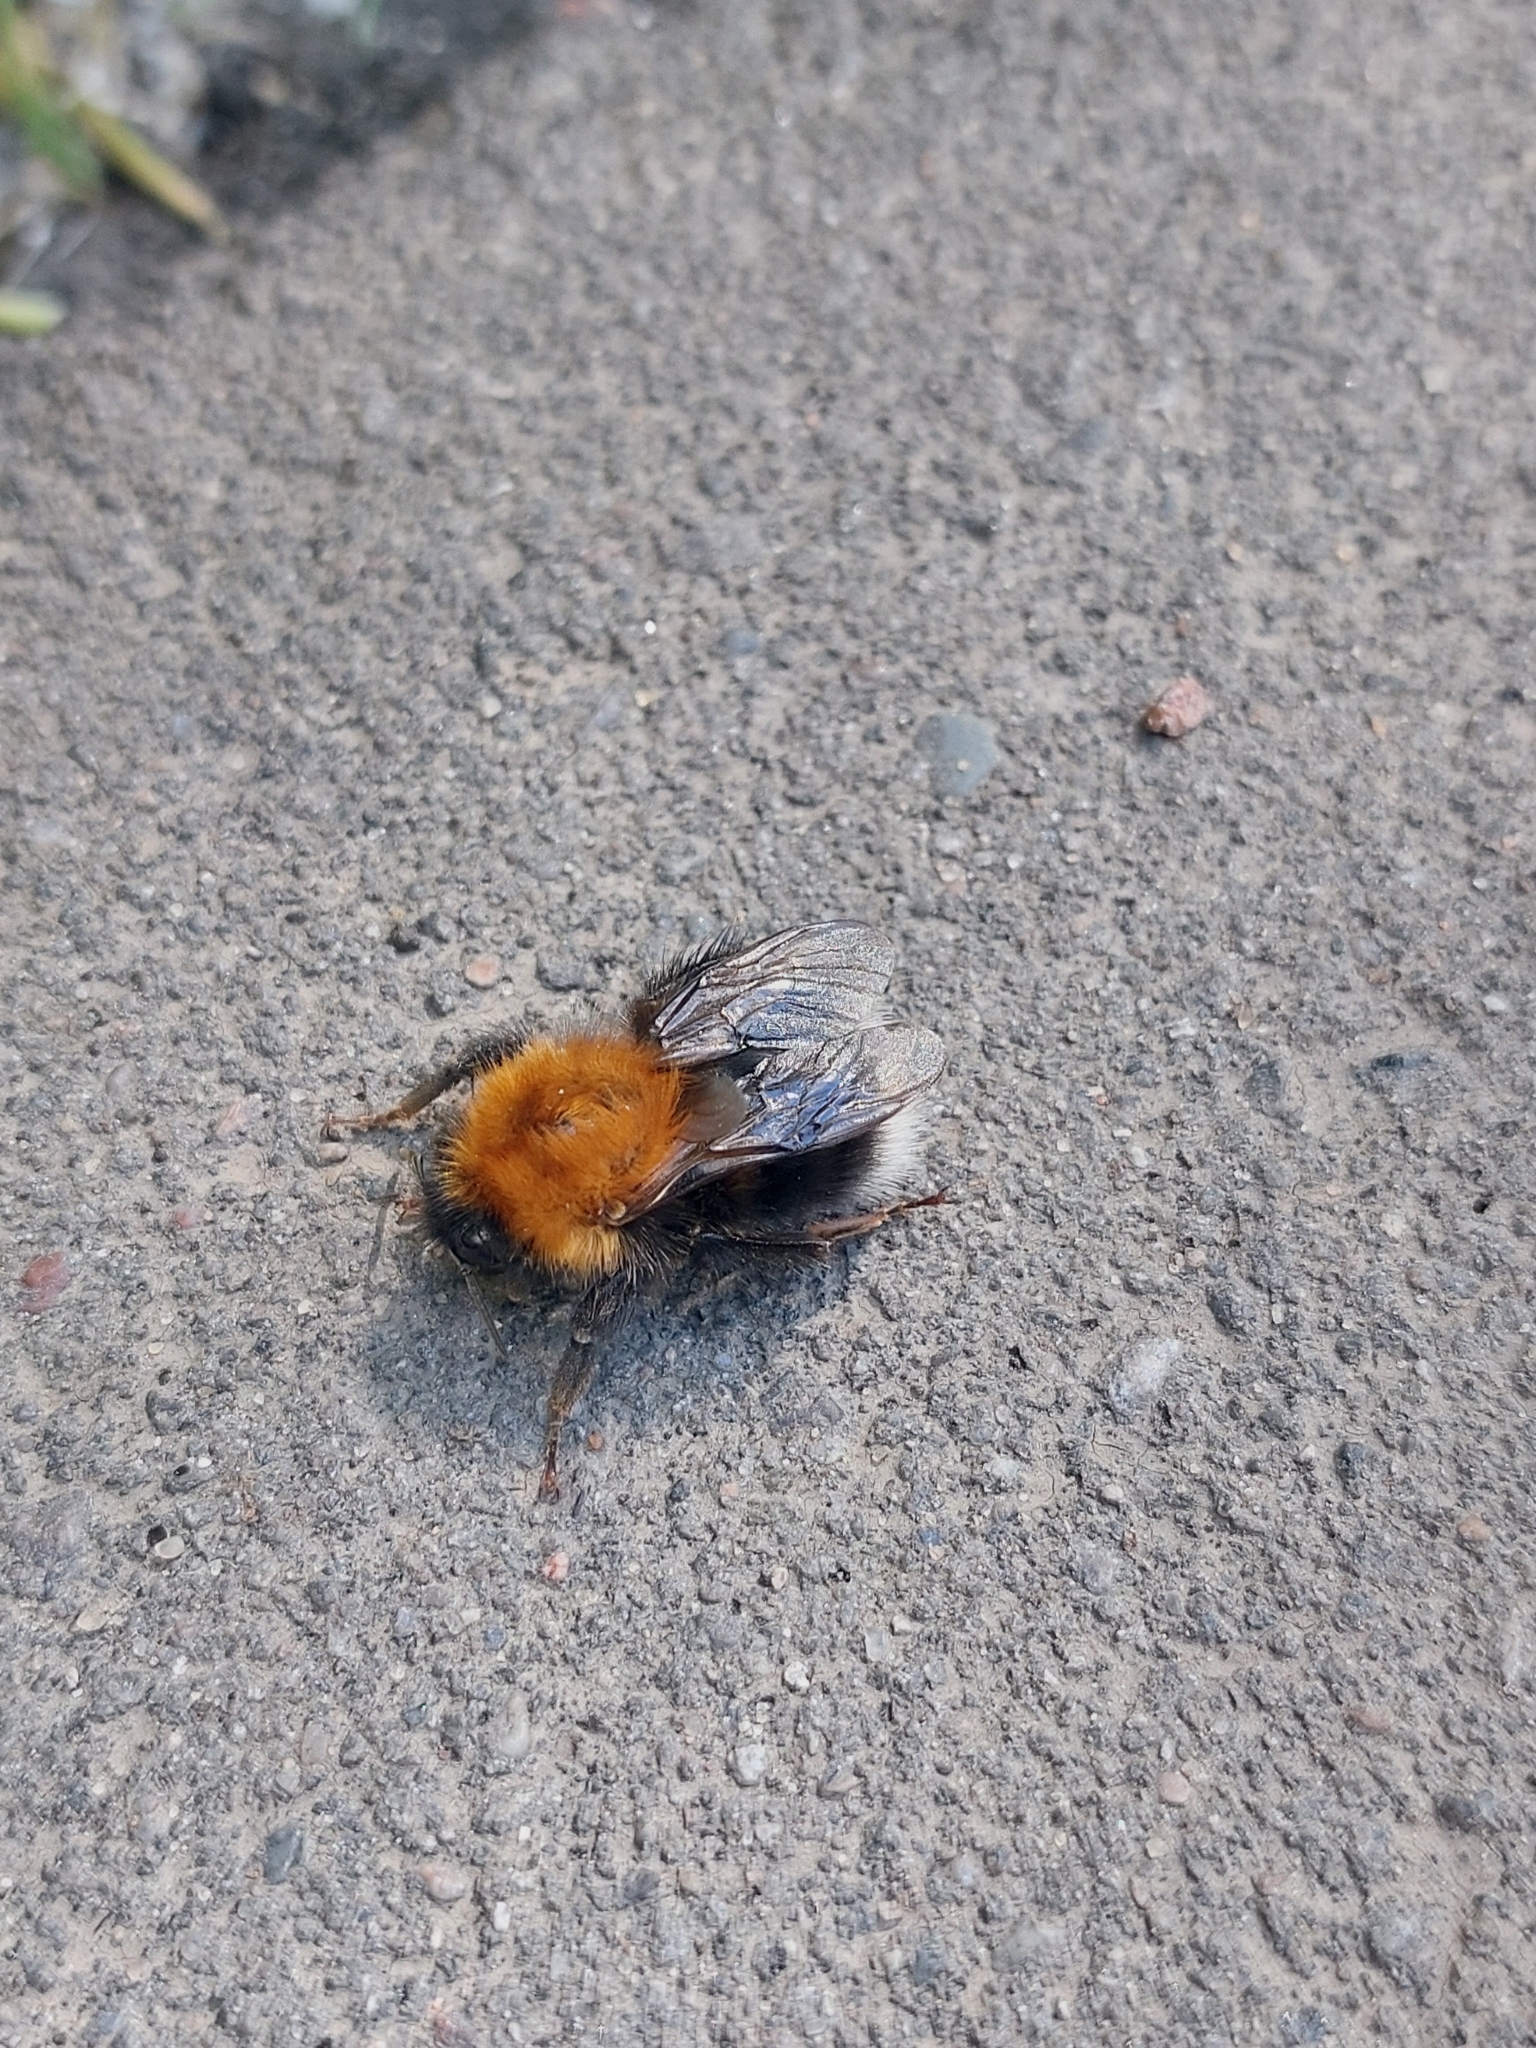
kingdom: Animalia
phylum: Arthropoda
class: Insecta
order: Hymenoptera
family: Apidae
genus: Bombus
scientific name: Bombus hypnorum
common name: New garden bumblebee
